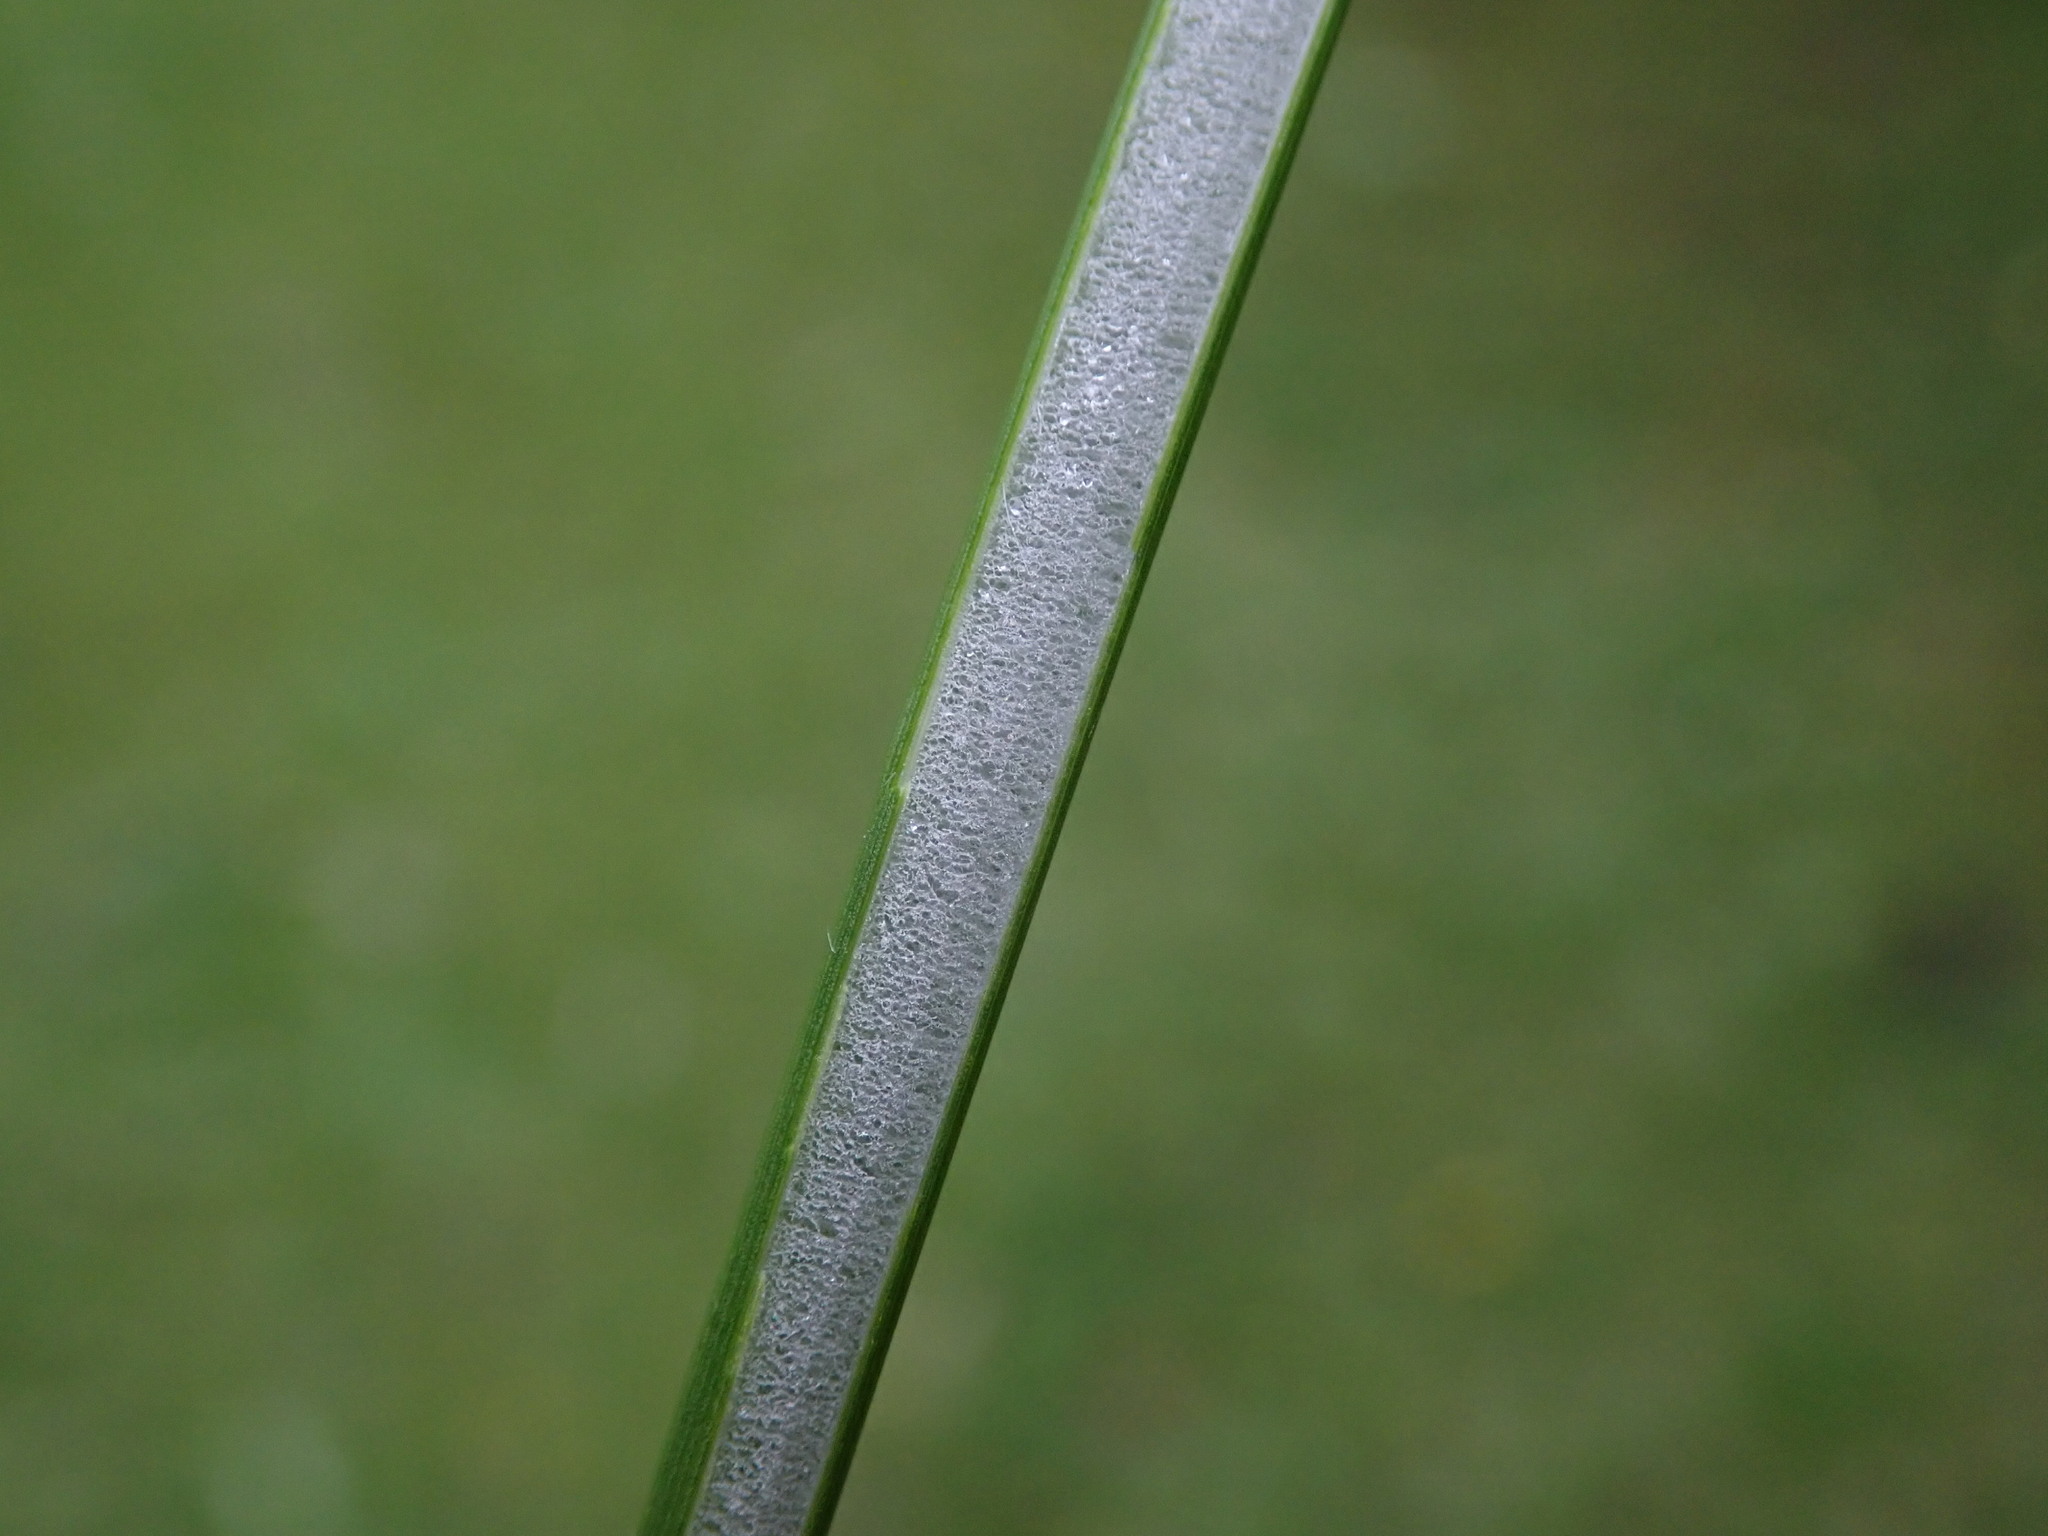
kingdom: Plantae
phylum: Tracheophyta
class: Liliopsida
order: Poales
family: Juncaceae
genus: Juncus
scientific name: Juncus effusus
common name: Soft rush
